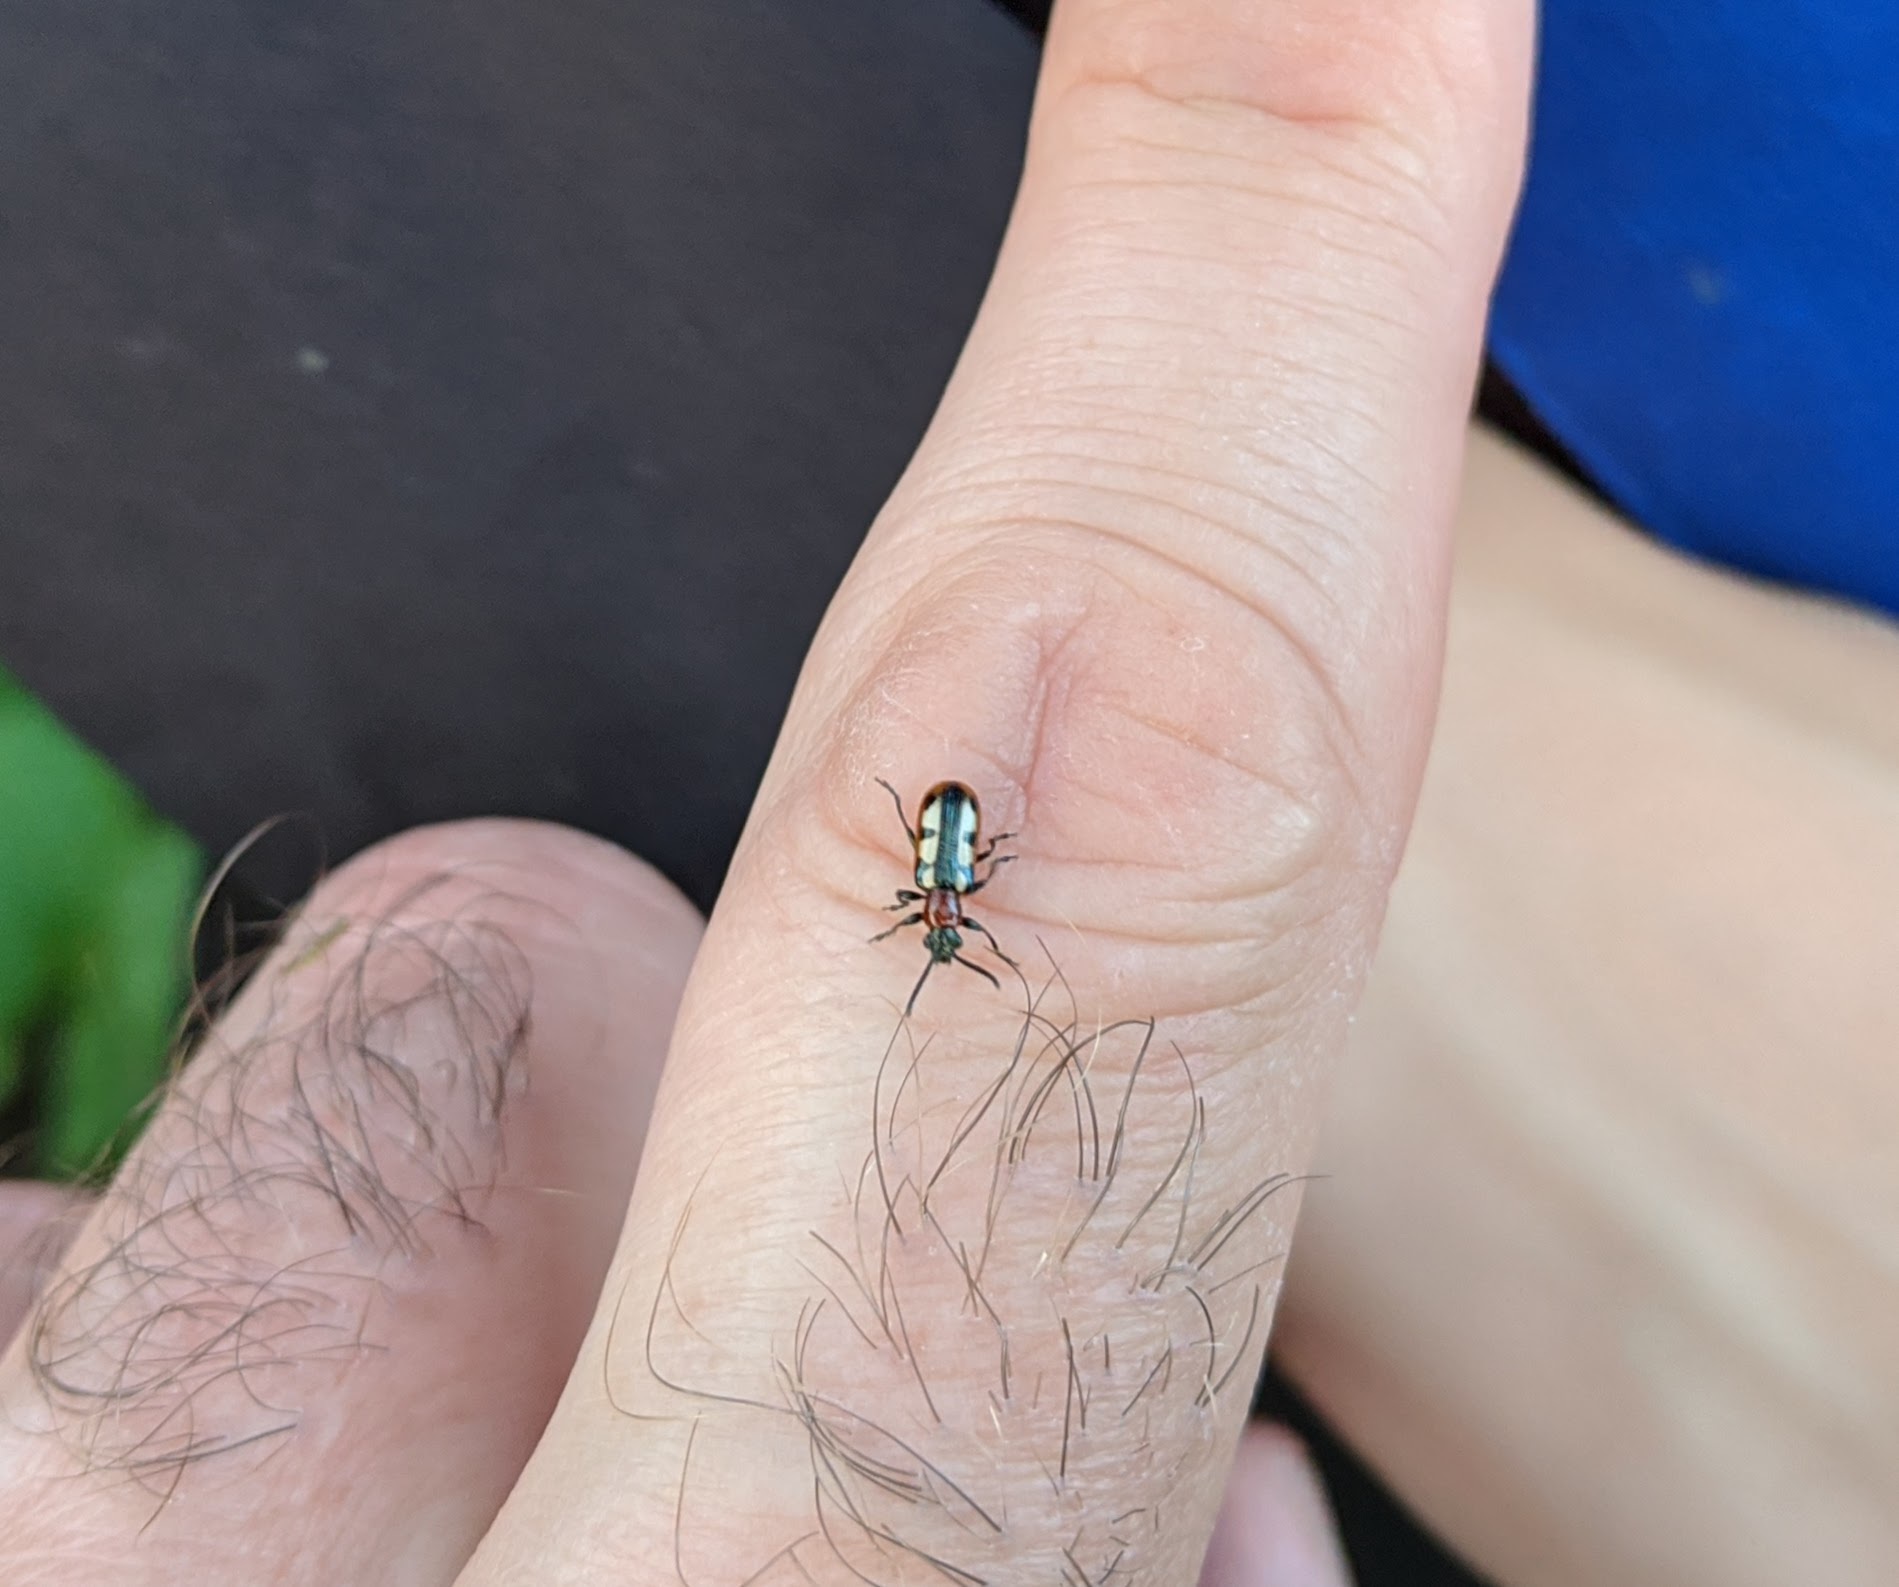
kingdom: Animalia
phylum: Arthropoda
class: Insecta
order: Coleoptera
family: Chrysomelidae
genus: Crioceris
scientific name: Crioceris asparagi
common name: Asparagus beetle
